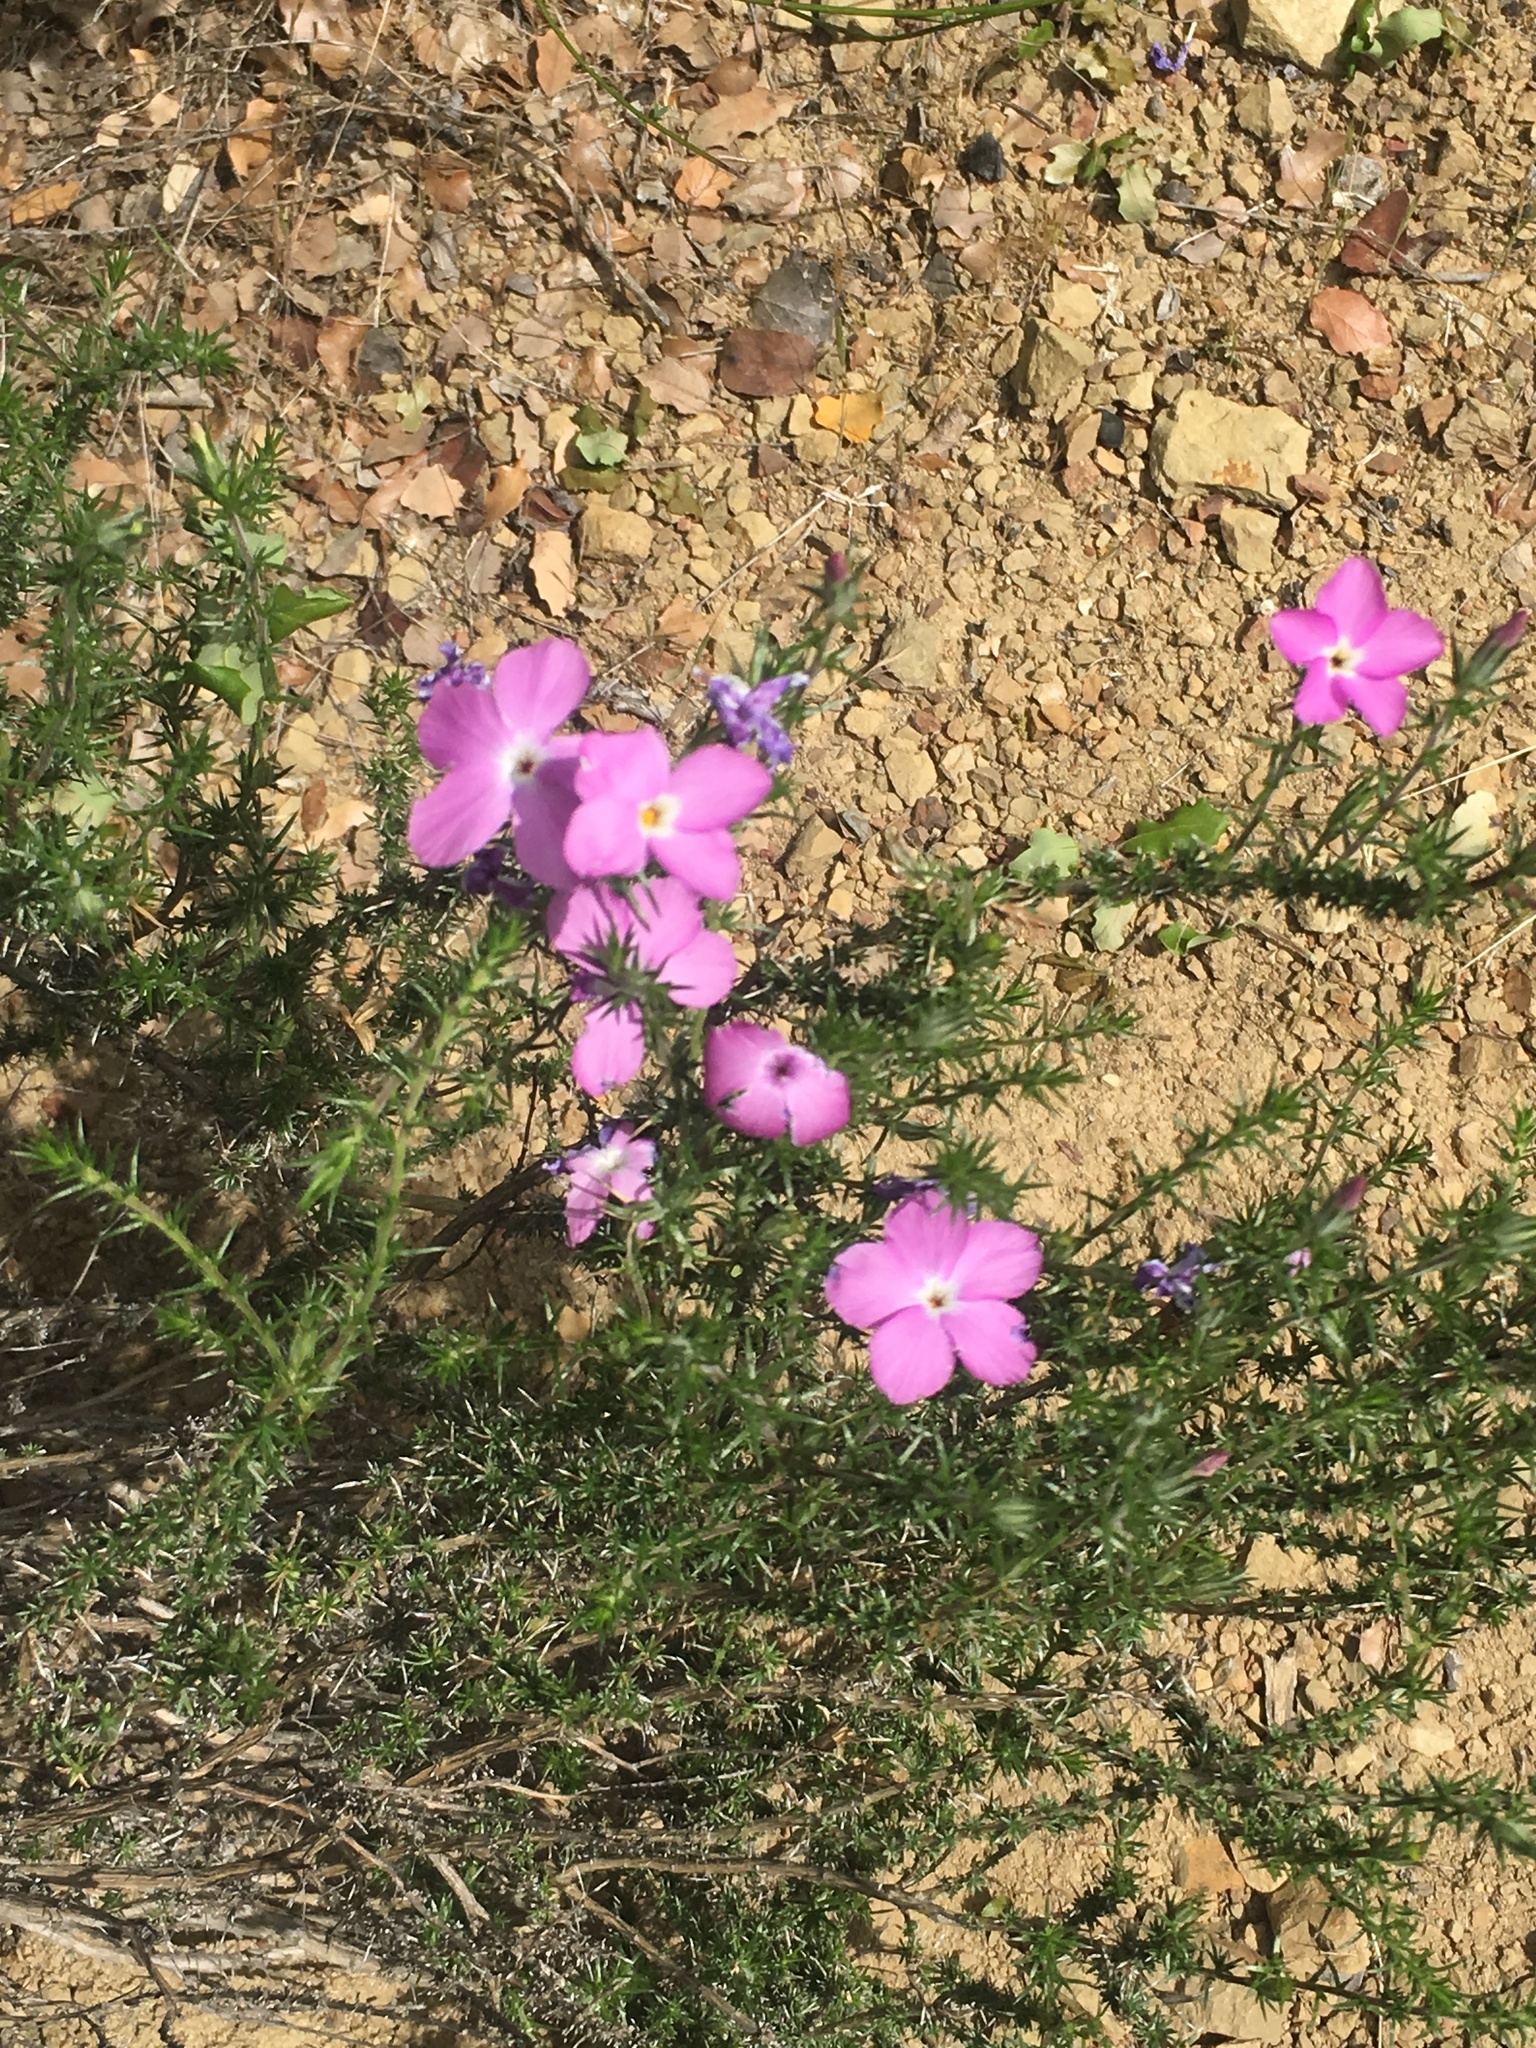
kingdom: Plantae
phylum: Tracheophyta
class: Magnoliopsida
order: Ericales
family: Polemoniaceae
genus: Linanthus
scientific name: Linanthus californicus
